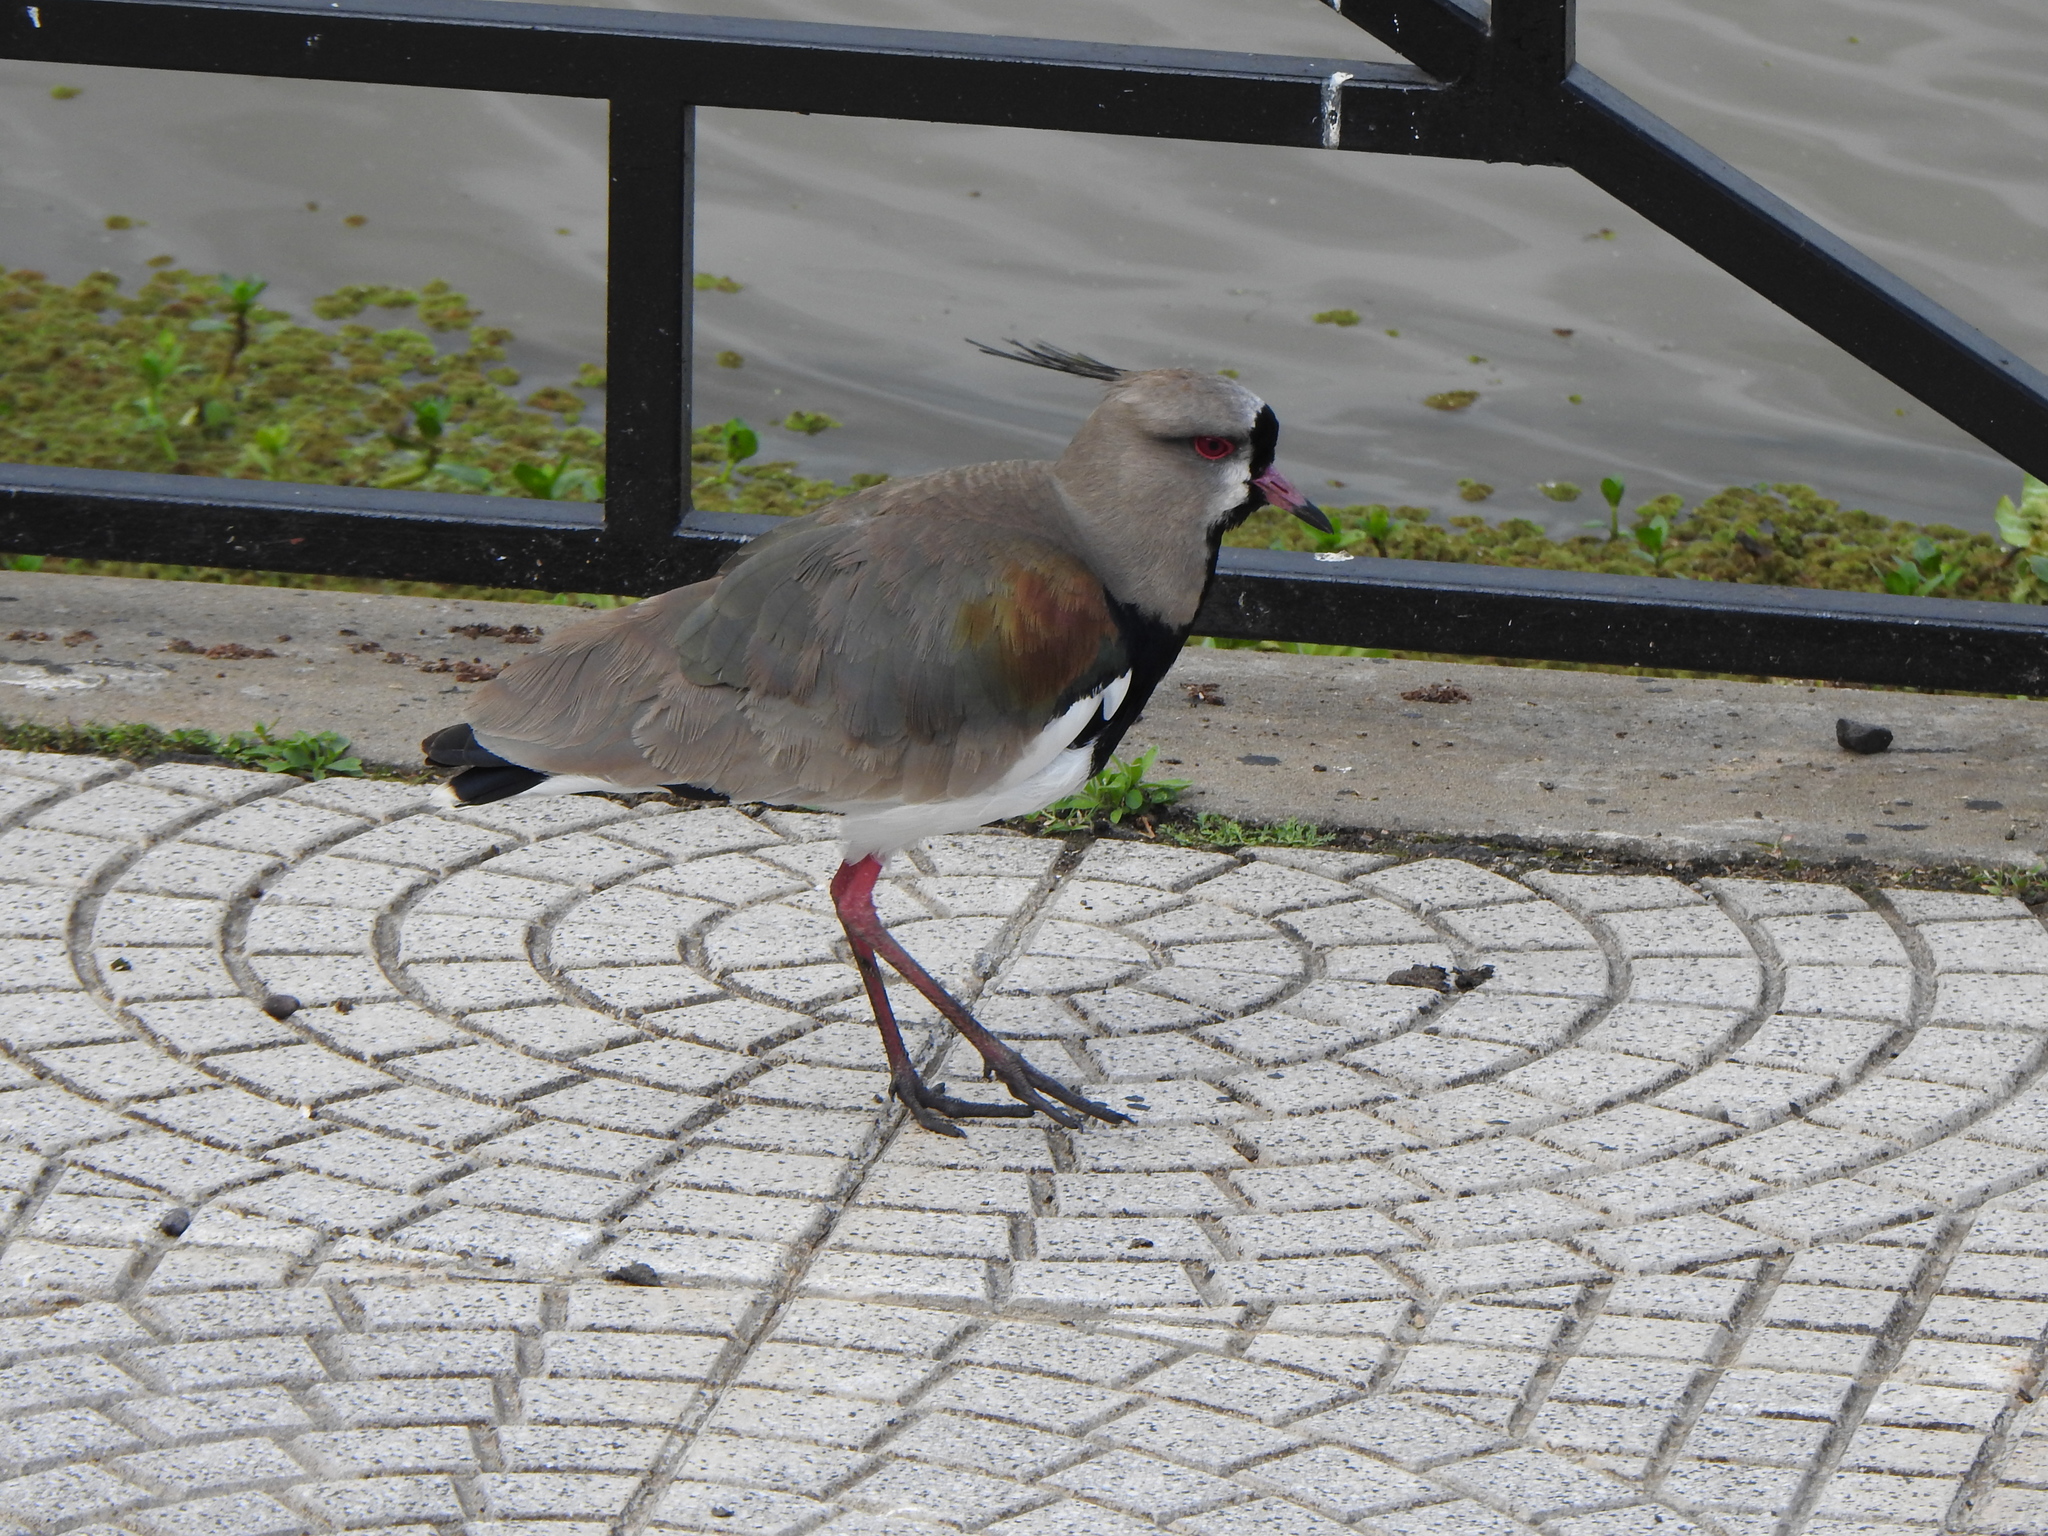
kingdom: Animalia
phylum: Chordata
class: Aves
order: Charadriiformes
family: Charadriidae
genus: Vanellus
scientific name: Vanellus chilensis
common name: Southern lapwing
